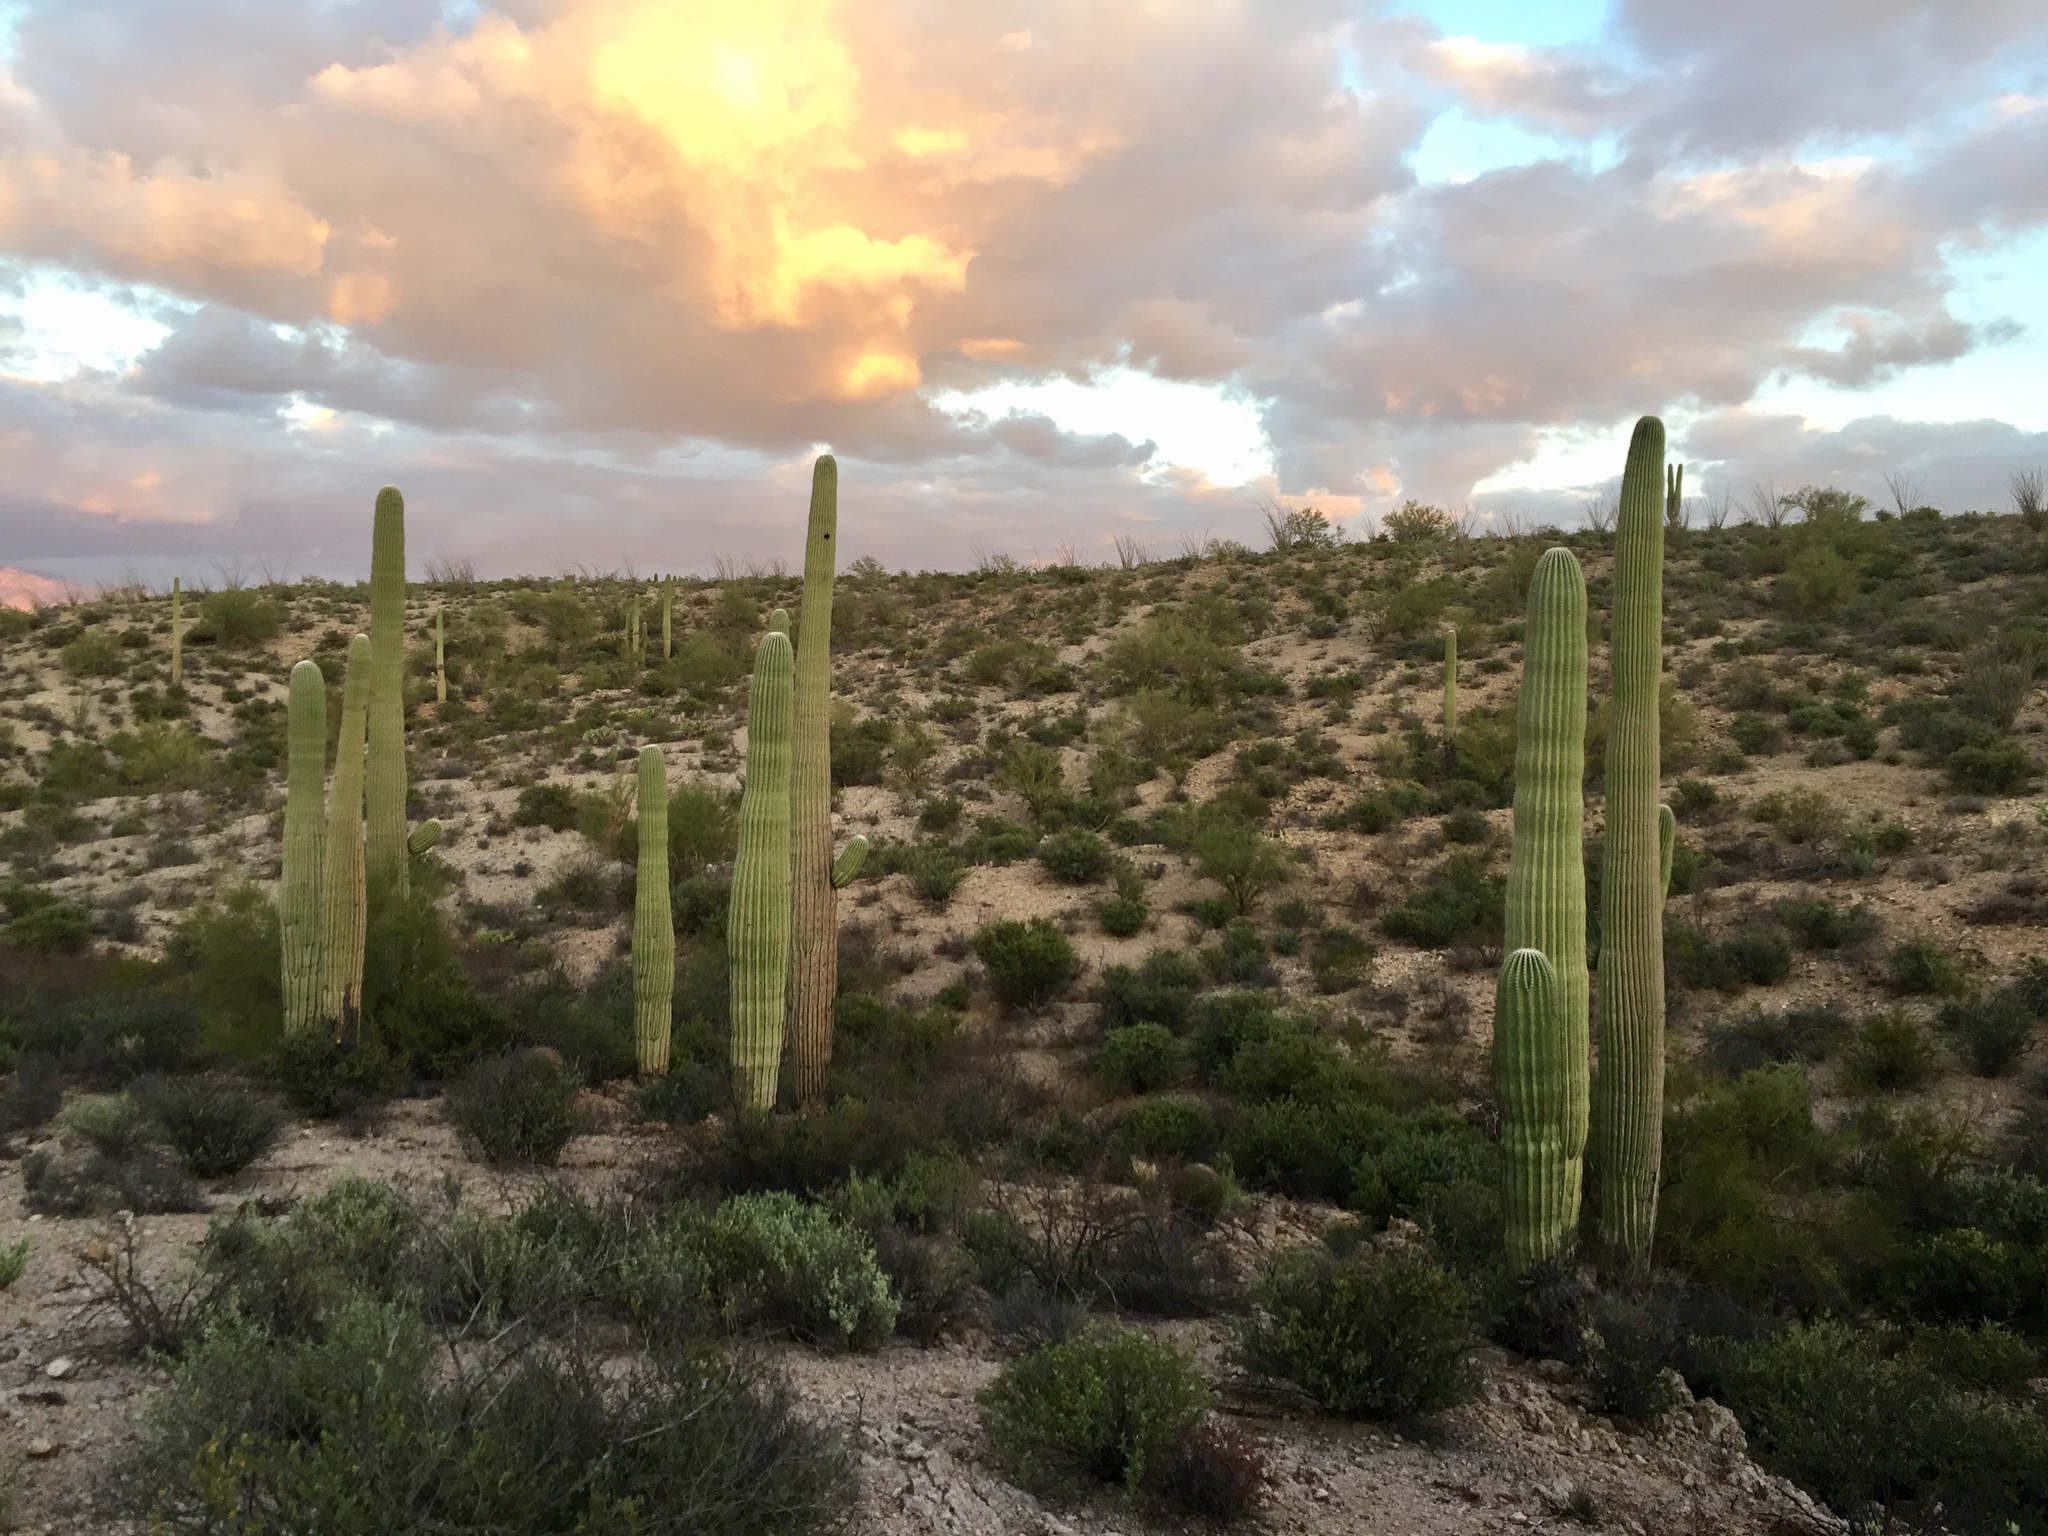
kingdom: Plantae
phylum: Tracheophyta
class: Magnoliopsida
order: Caryophyllales
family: Cactaceae
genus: Carnegiea
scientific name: Carnegiea gigantea
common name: Saguaro
